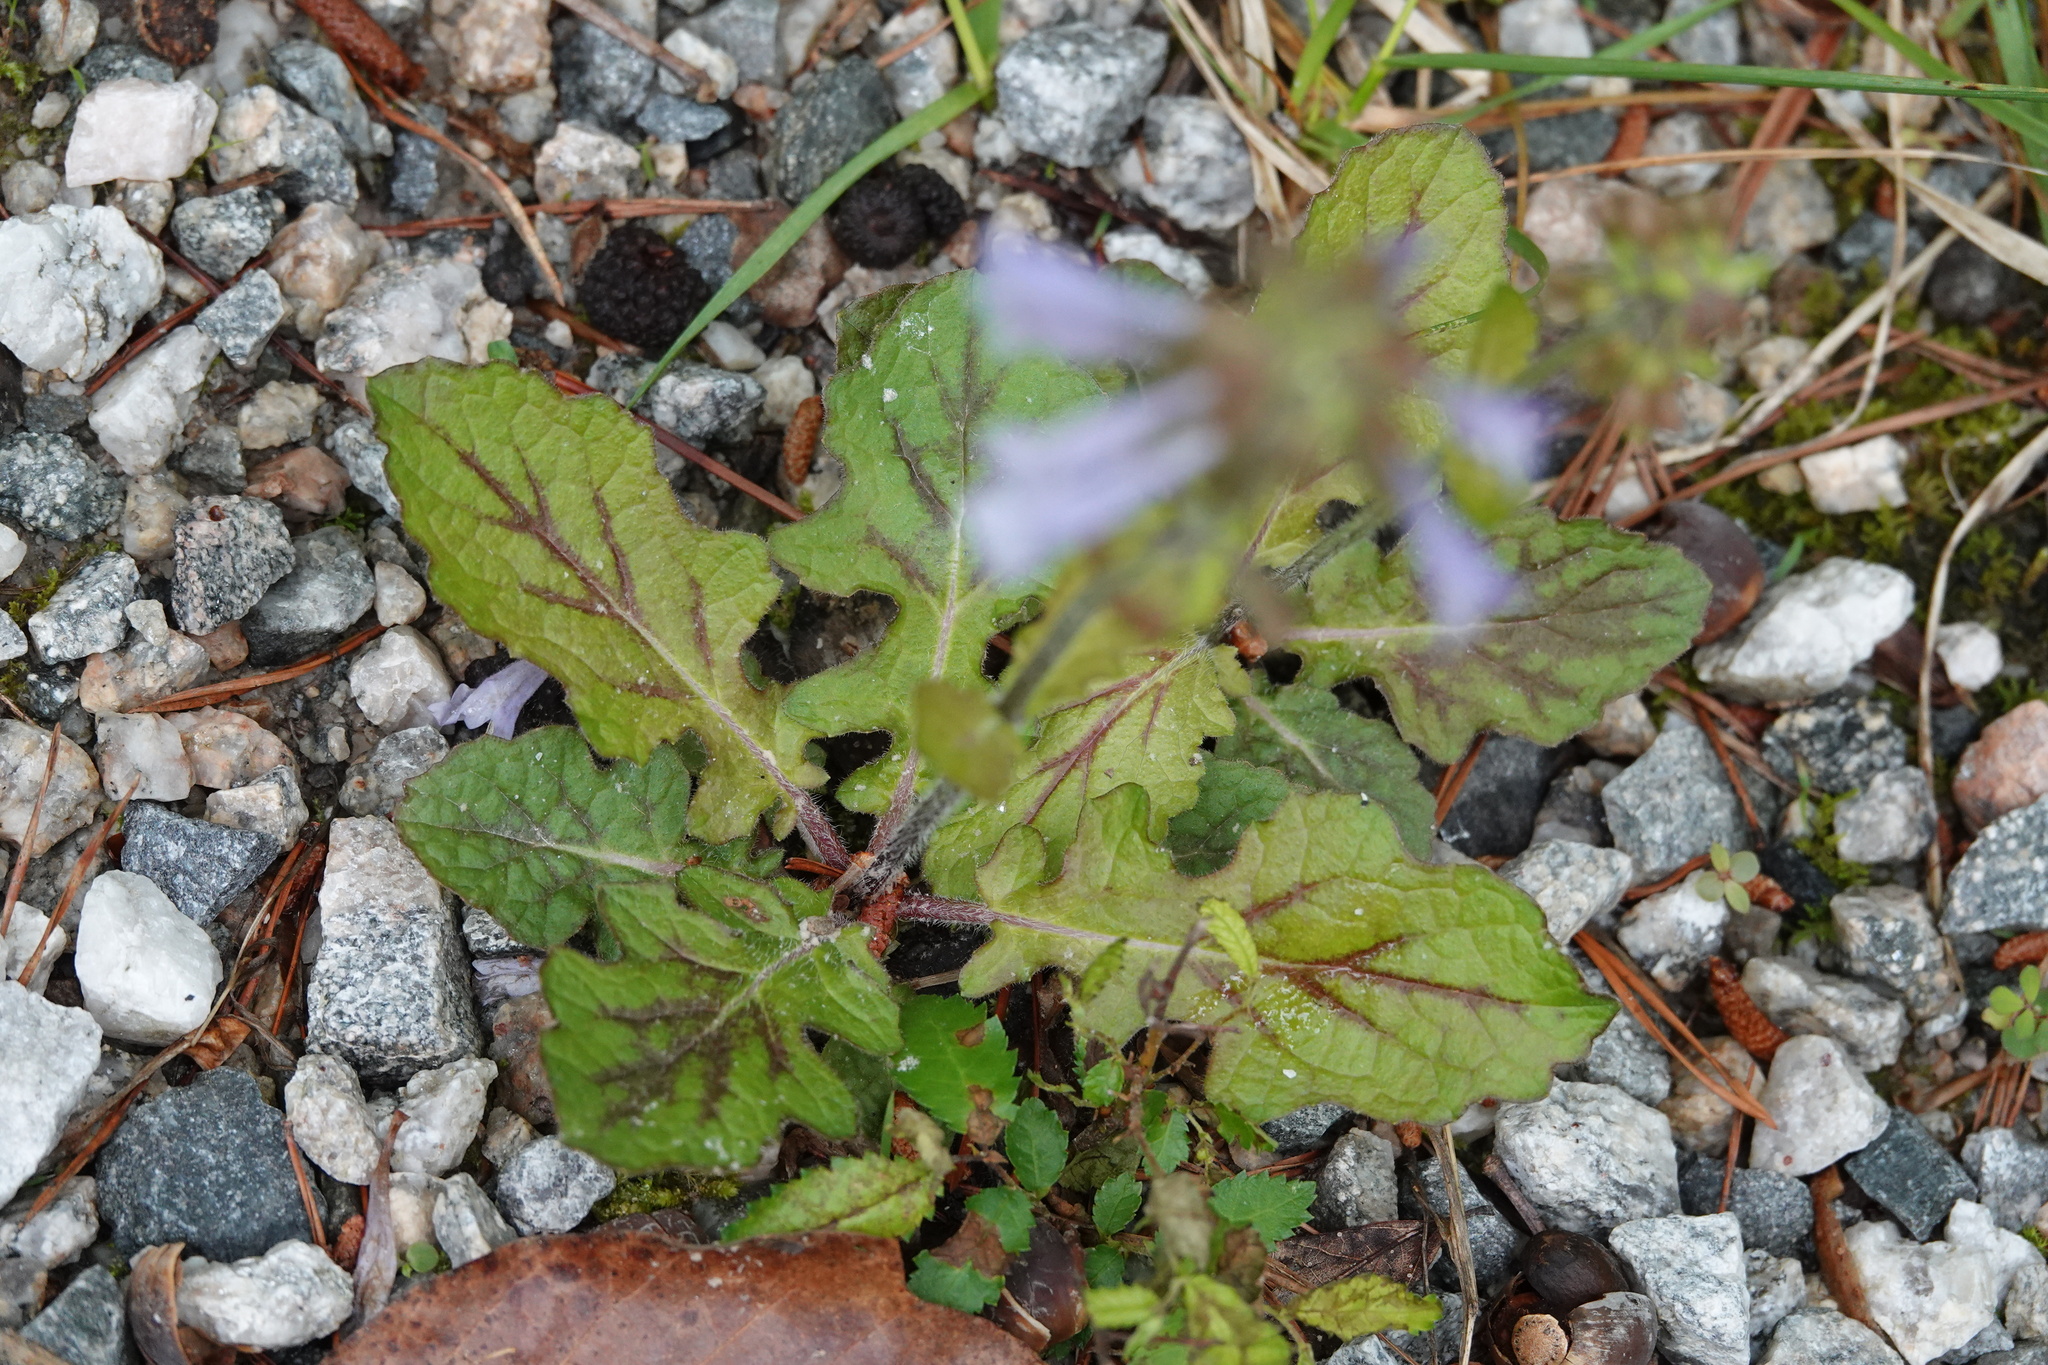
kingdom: Plantae
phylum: Tracheophyta
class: Magnoliopsida
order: Lamiales
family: Lamiaceae
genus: Salvia
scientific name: Salvia lyrata
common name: Cancerweed
